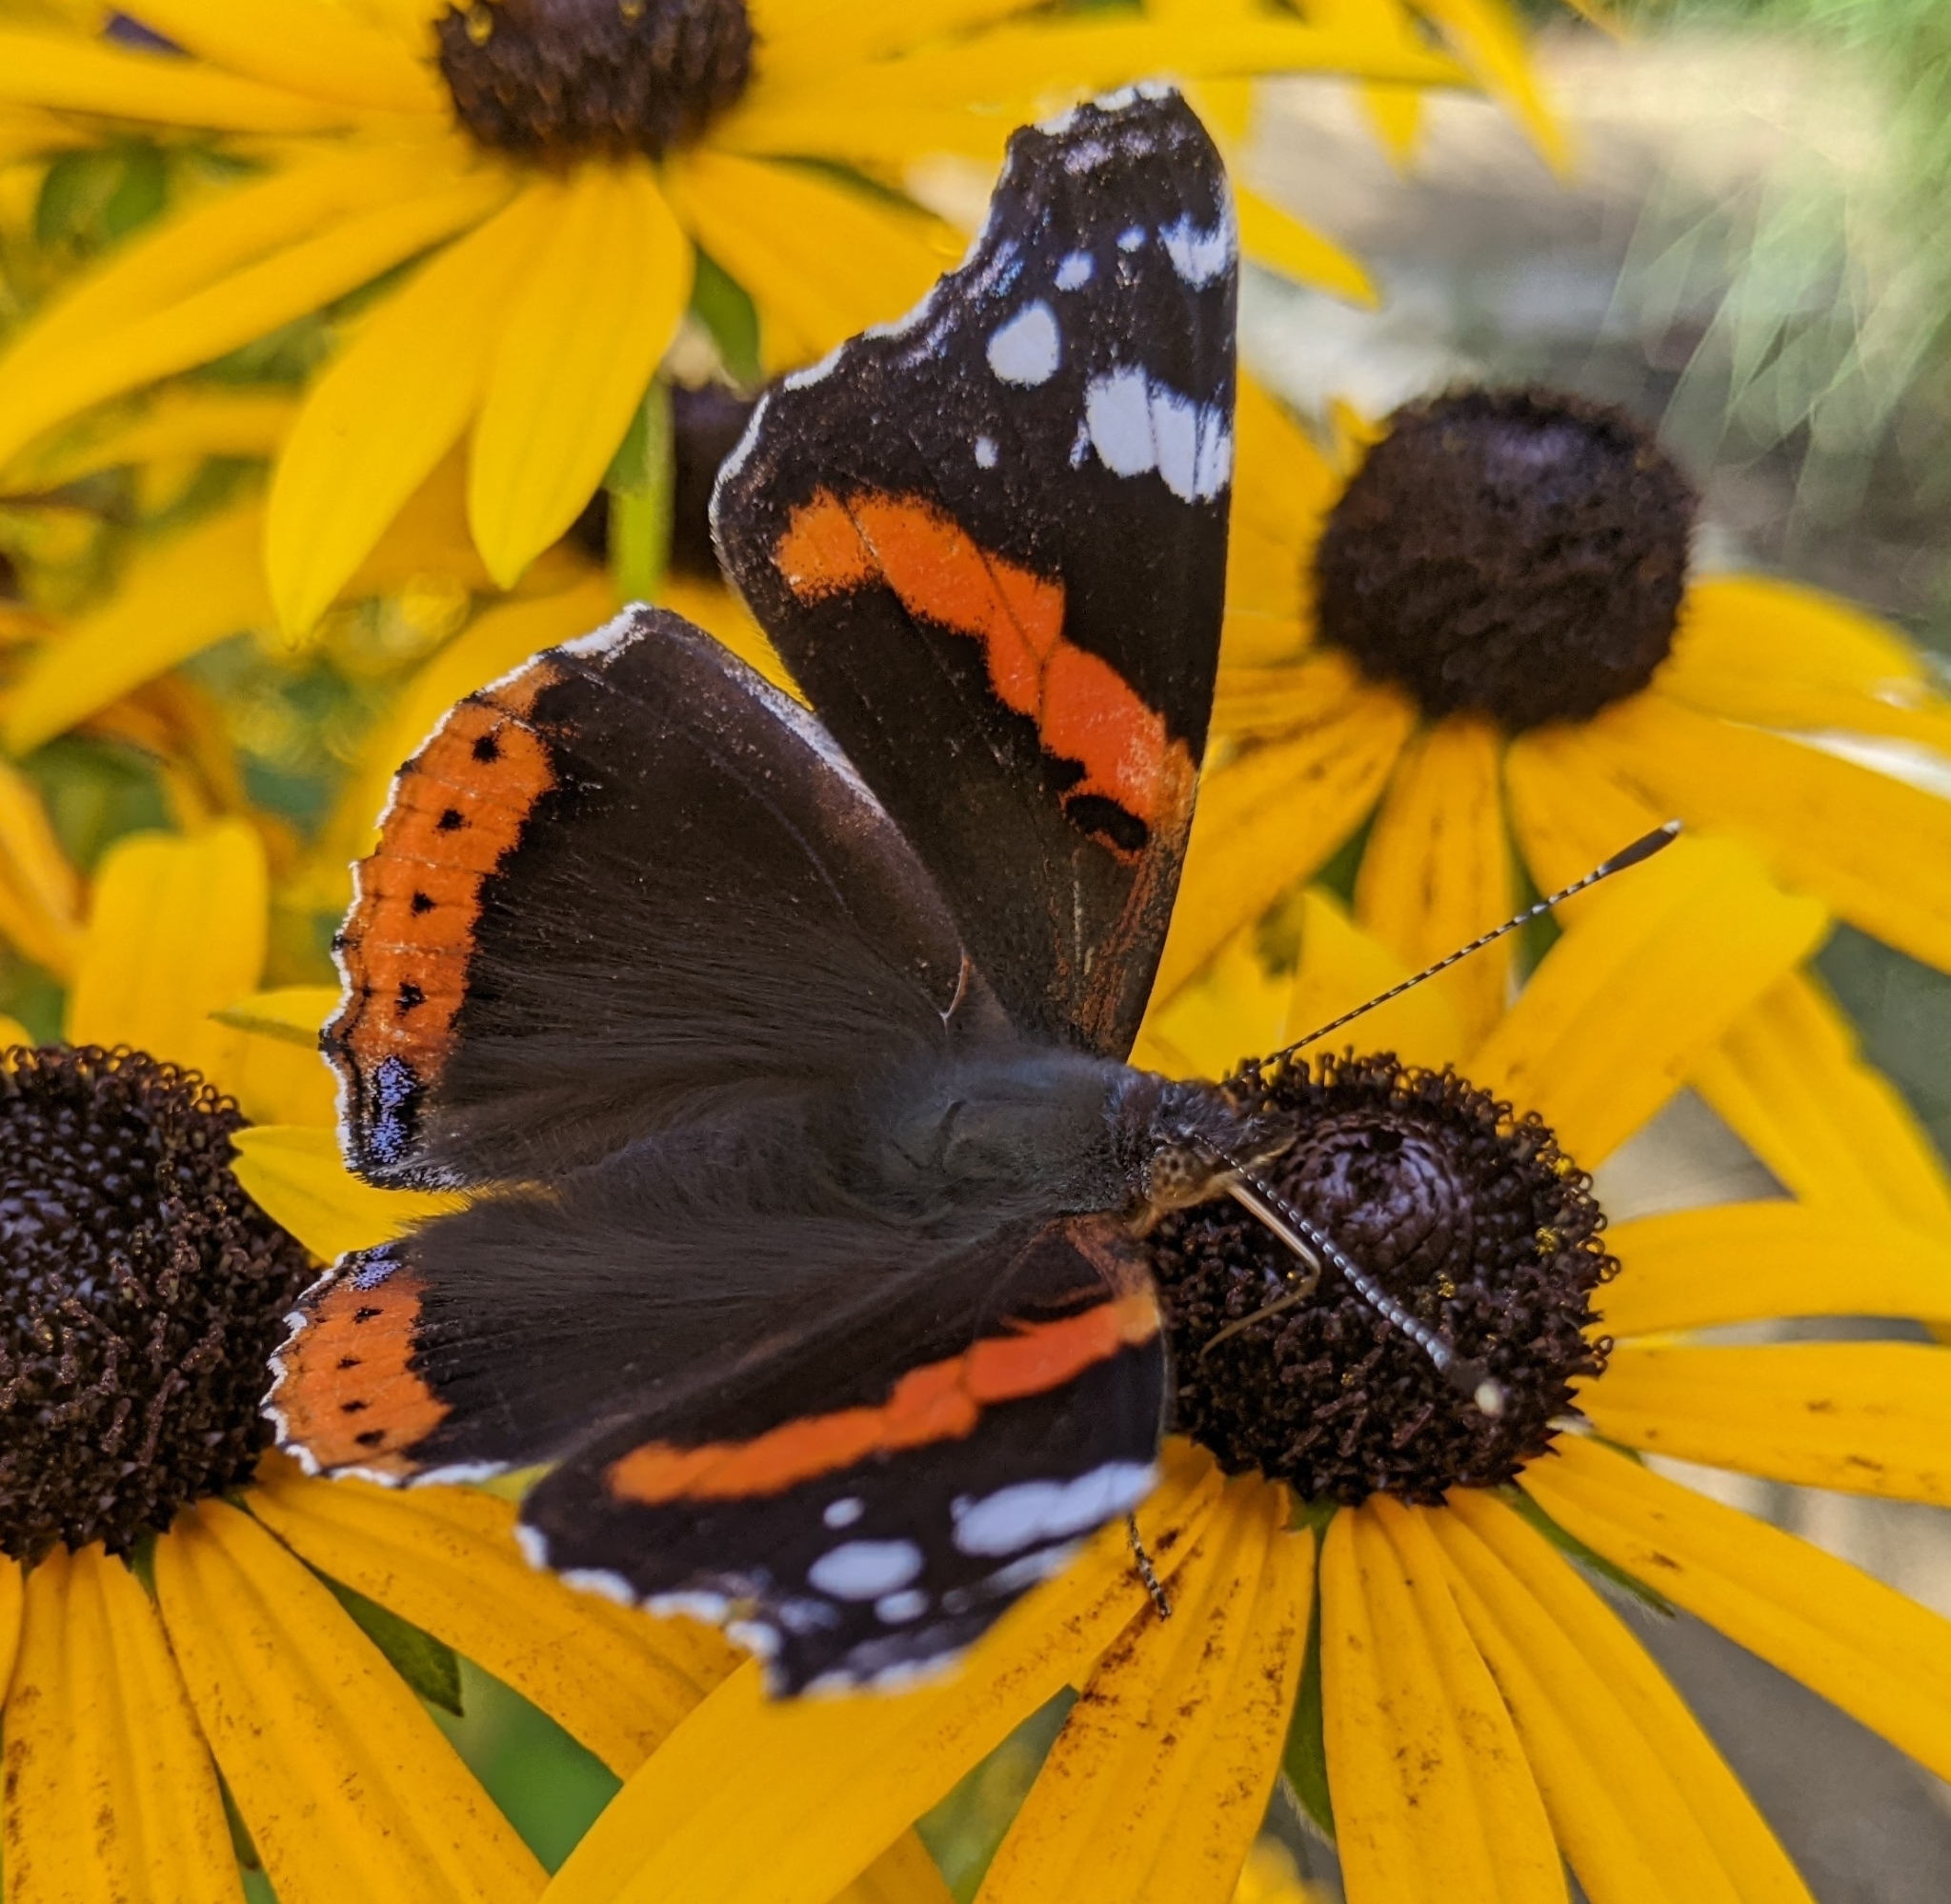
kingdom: Animalia
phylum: Arthropoda
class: Insecta
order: Lepidoptera
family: Nymphalidae
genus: Vanessa
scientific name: Vanessa atalanta
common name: Red admiral
